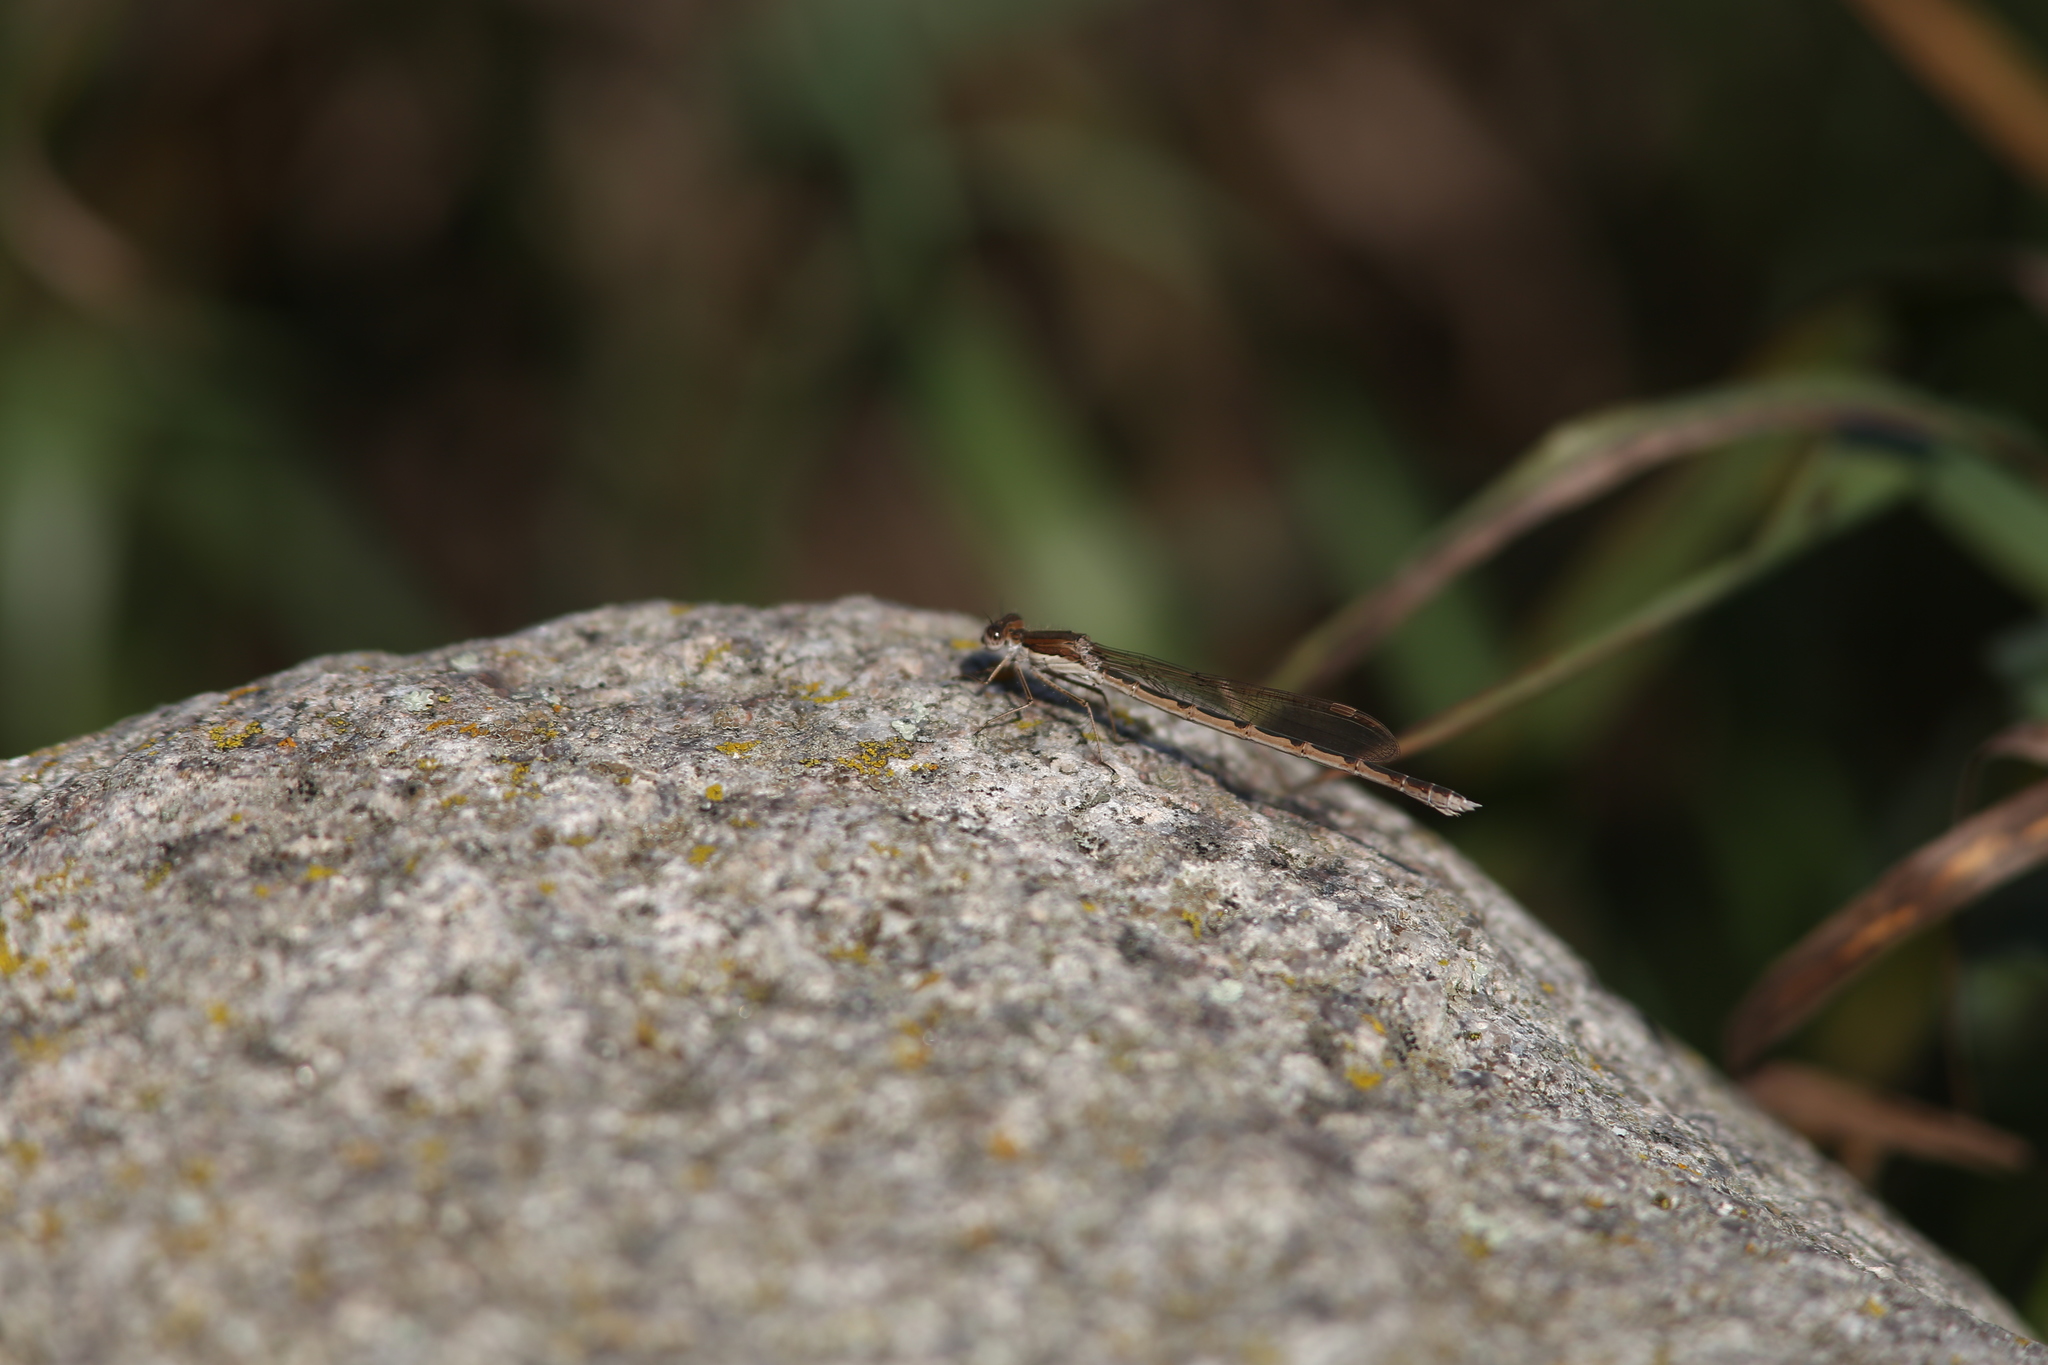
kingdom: Animalia
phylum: Arthropoda
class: Insecta
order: Odonata
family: Lestidae
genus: Sympecma
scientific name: Sympecma fusca
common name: Common winter damsel
